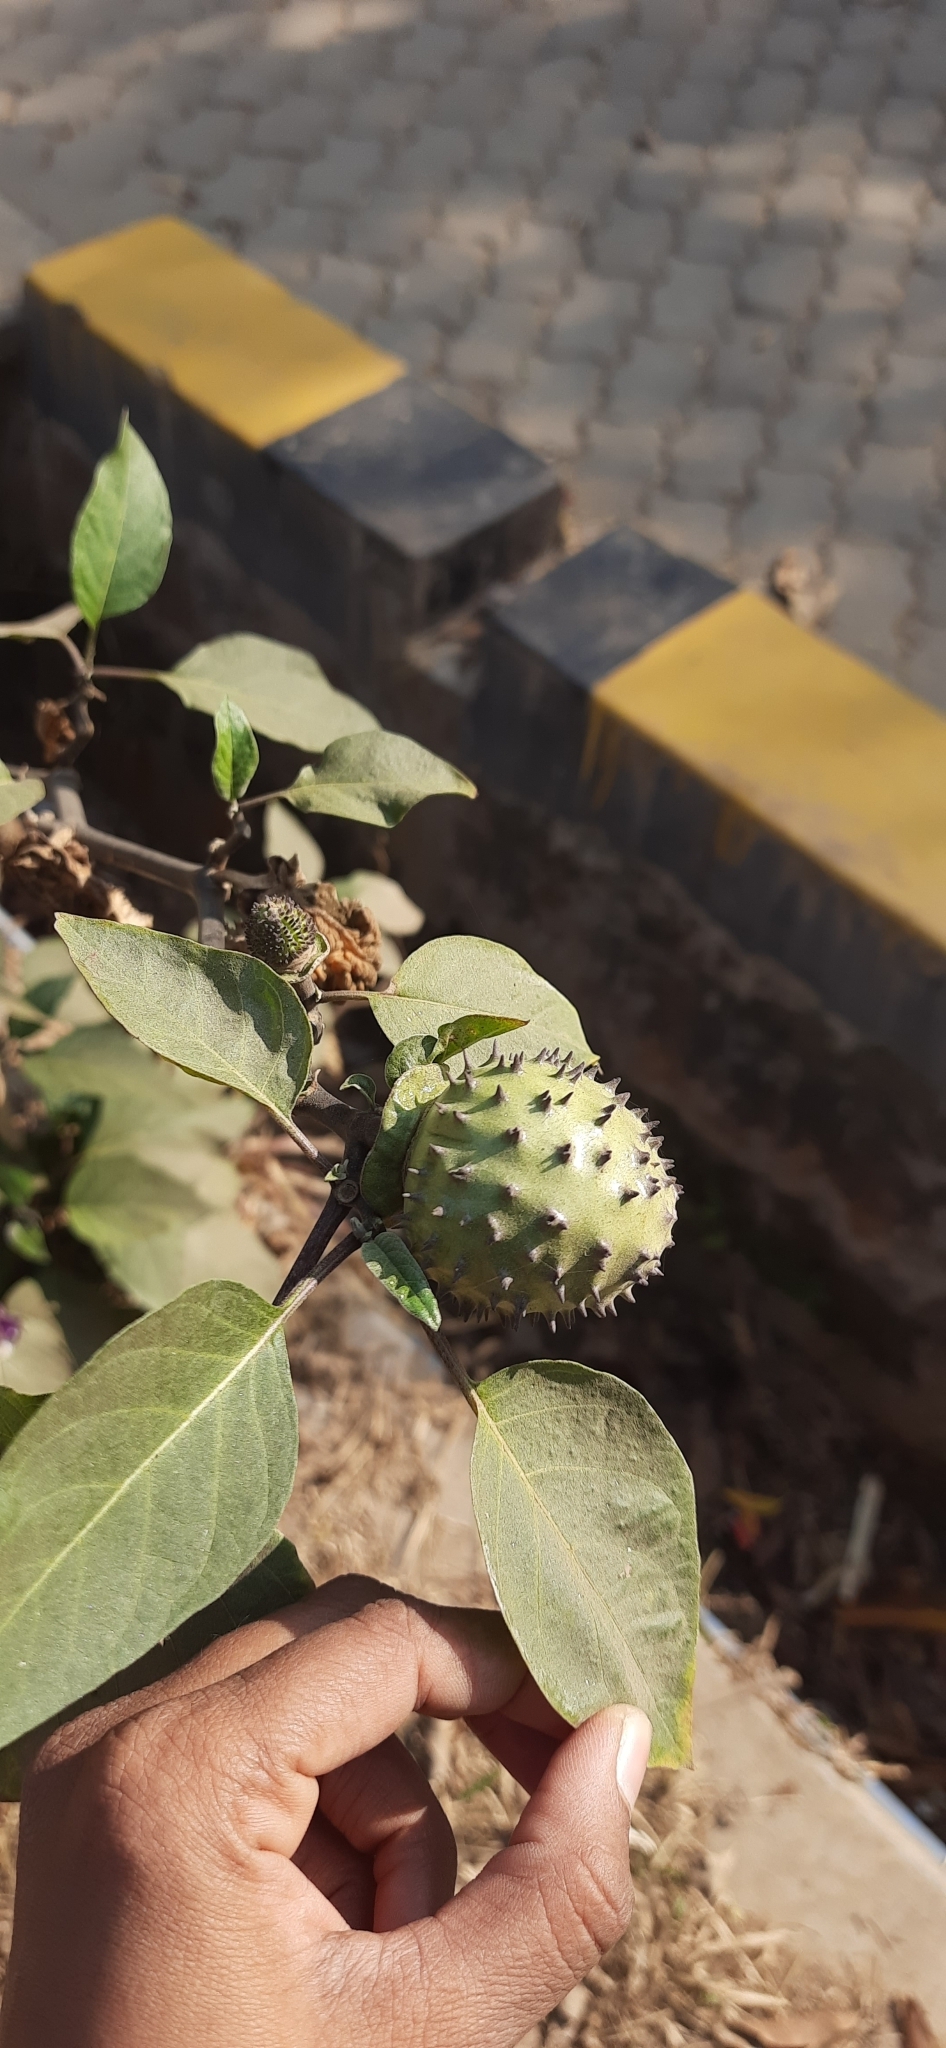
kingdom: Plantae
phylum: Tracheophyta
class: Magnoliopsida
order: Solanales
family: Solanaceae
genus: Datura
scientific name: Datura metel
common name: Jimsonweed
